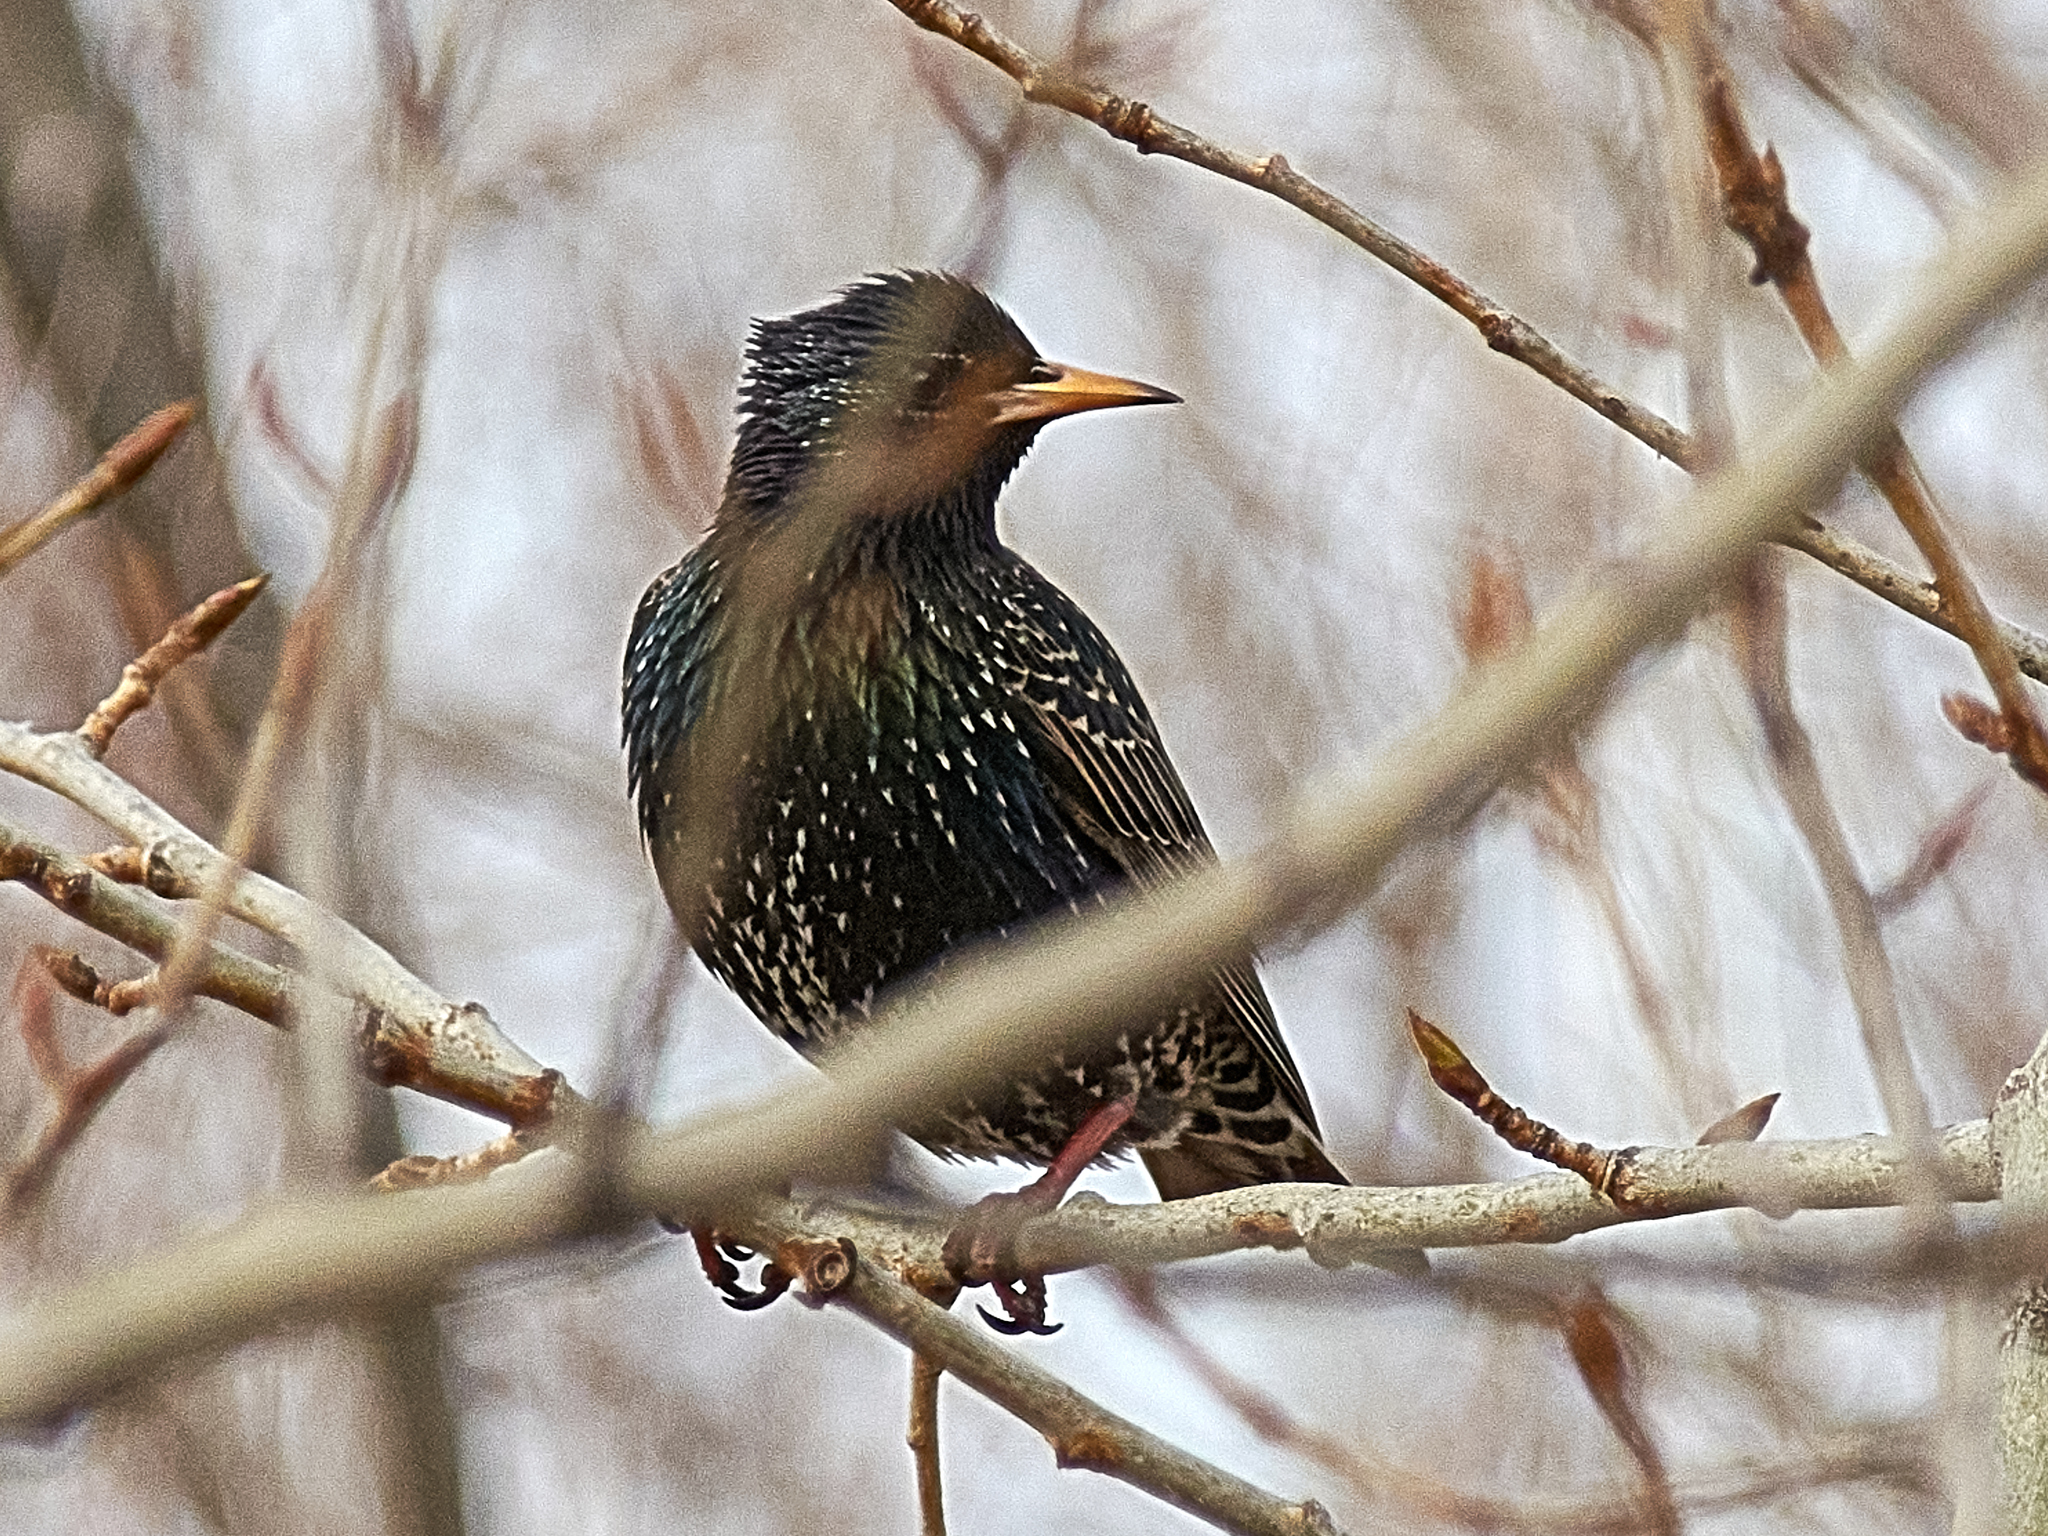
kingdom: Animalia
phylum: Chordata
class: Aves
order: Passeriformes
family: Sturnidae
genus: Sturnus
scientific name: Sturnus vulgaris
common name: Common starling
